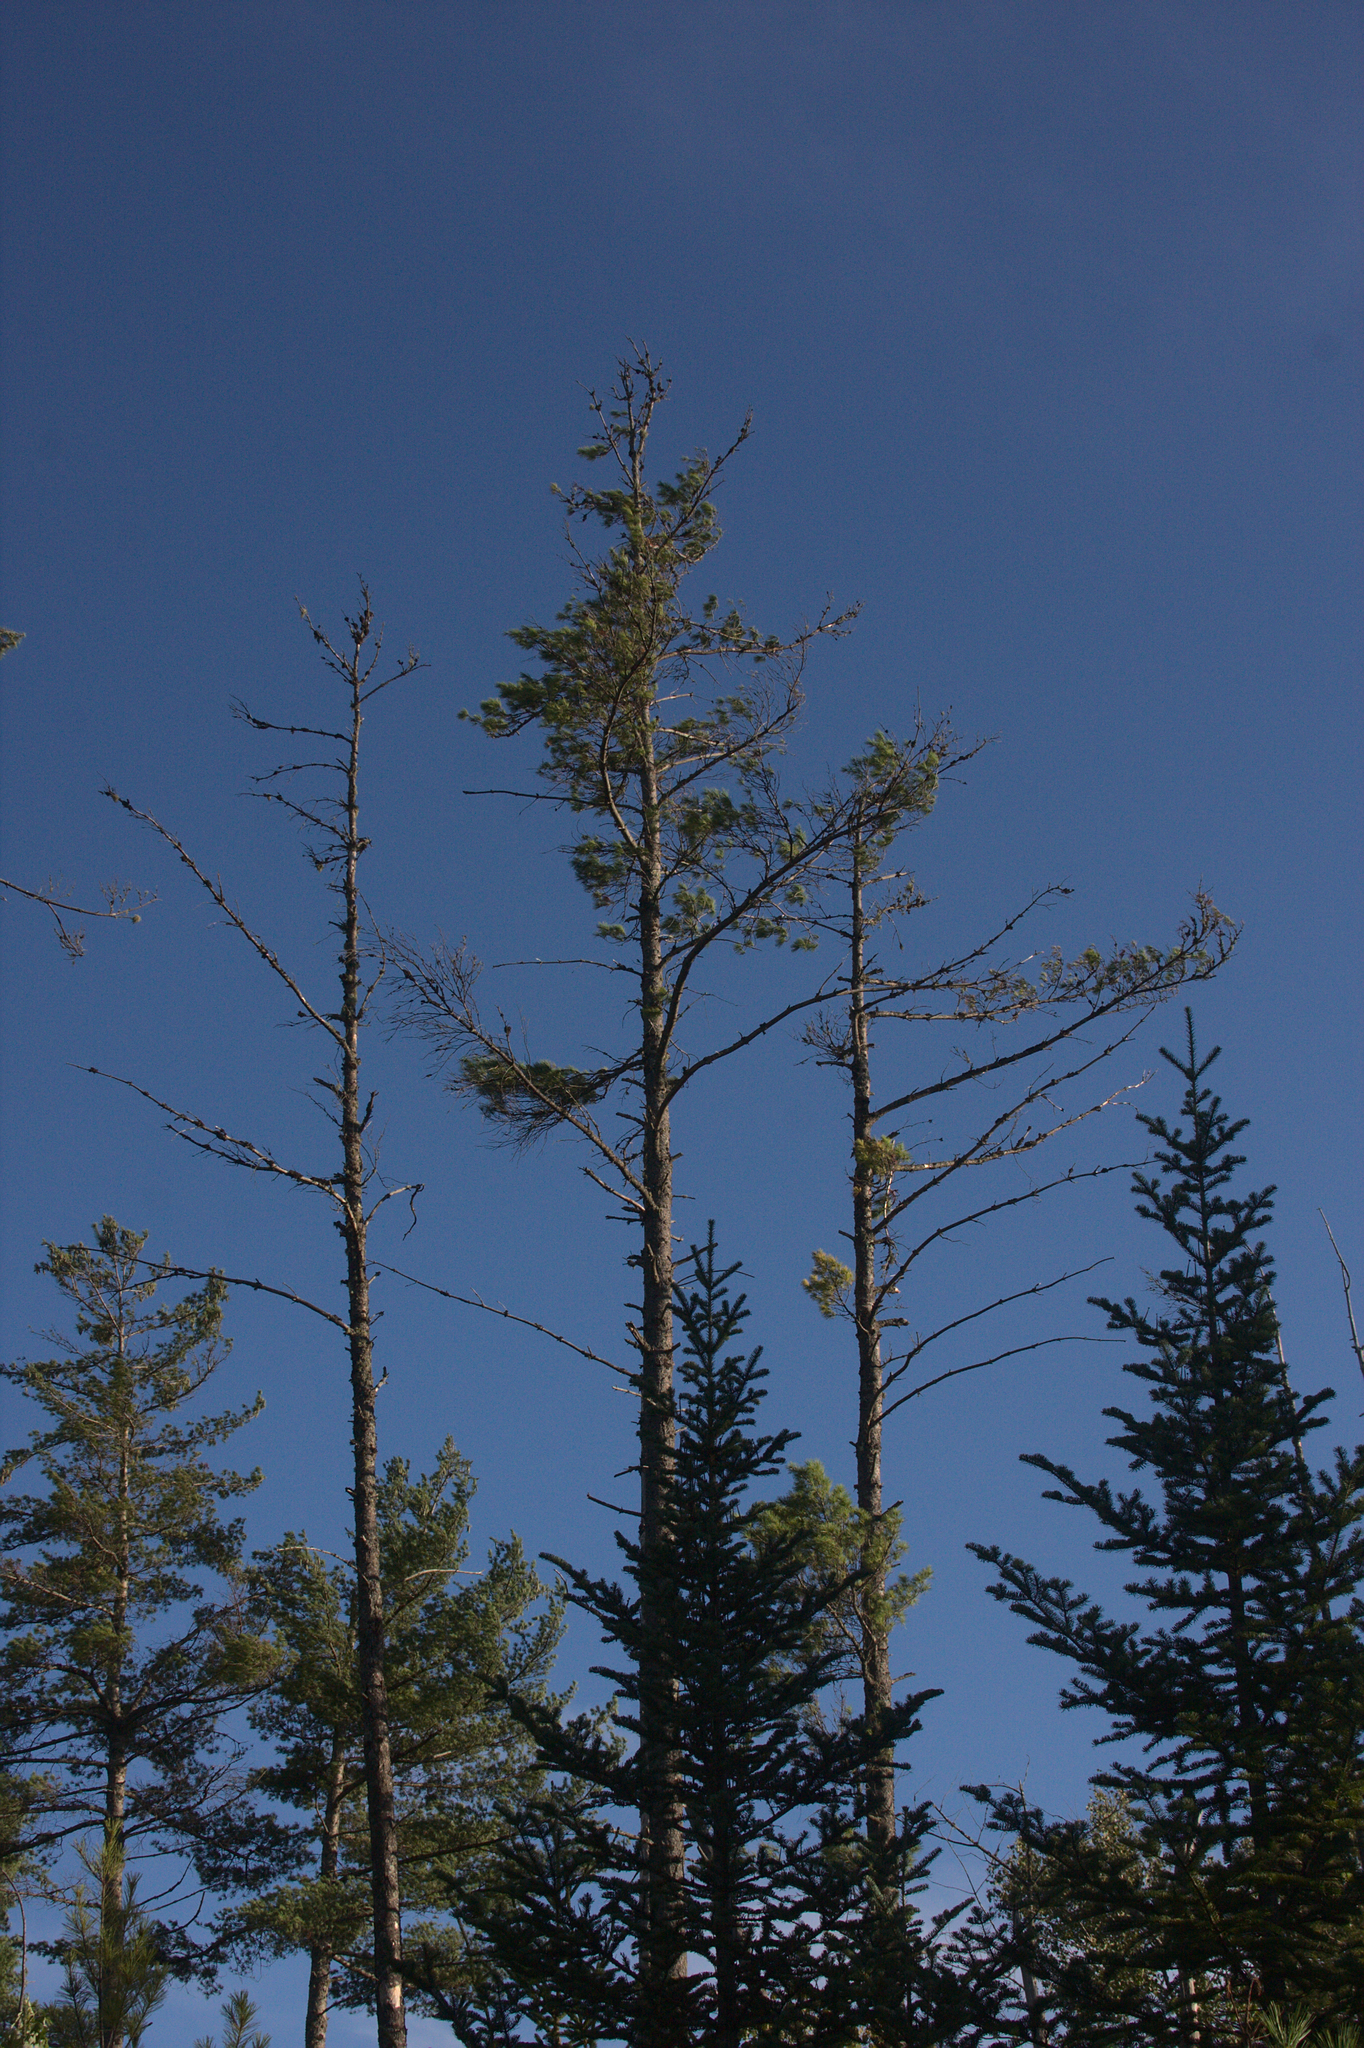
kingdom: Plantae
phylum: Tracheophyta
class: Pinopsida
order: Pinales
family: Pinaceae
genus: Pinus
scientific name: Pinus strobus
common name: Weymouth pine
